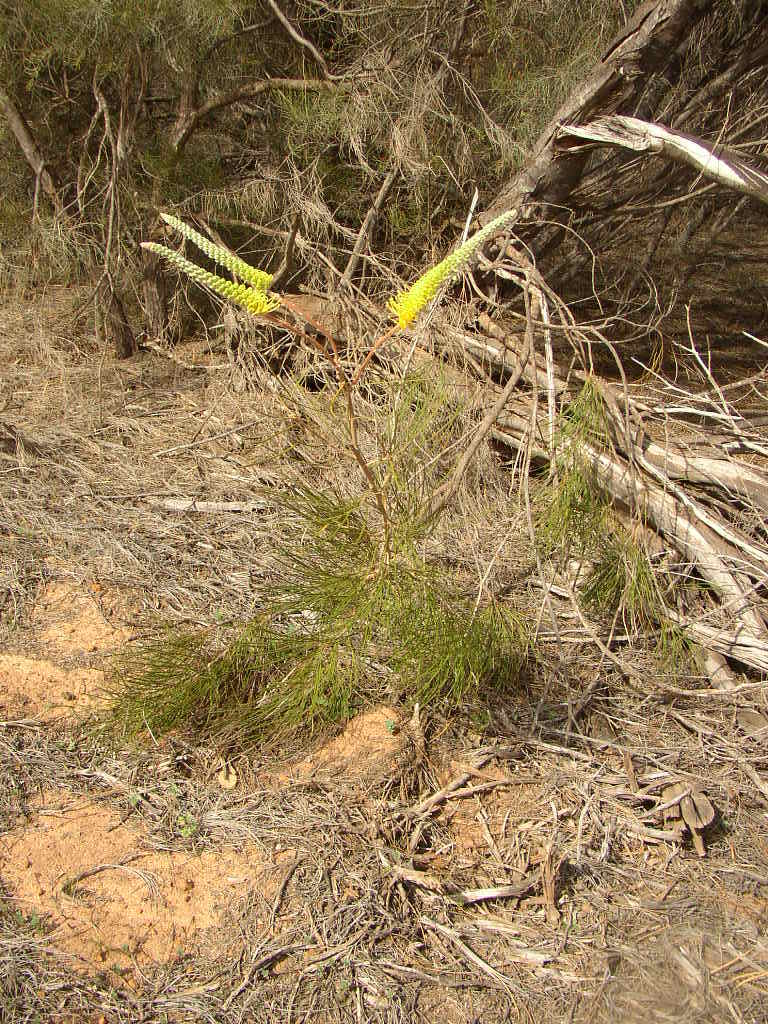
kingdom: Plantae
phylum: Tracheophyta
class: Magnoliopsida
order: Proteales
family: Proteaceae
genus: Grevillea
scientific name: Grevillea eriostachya
